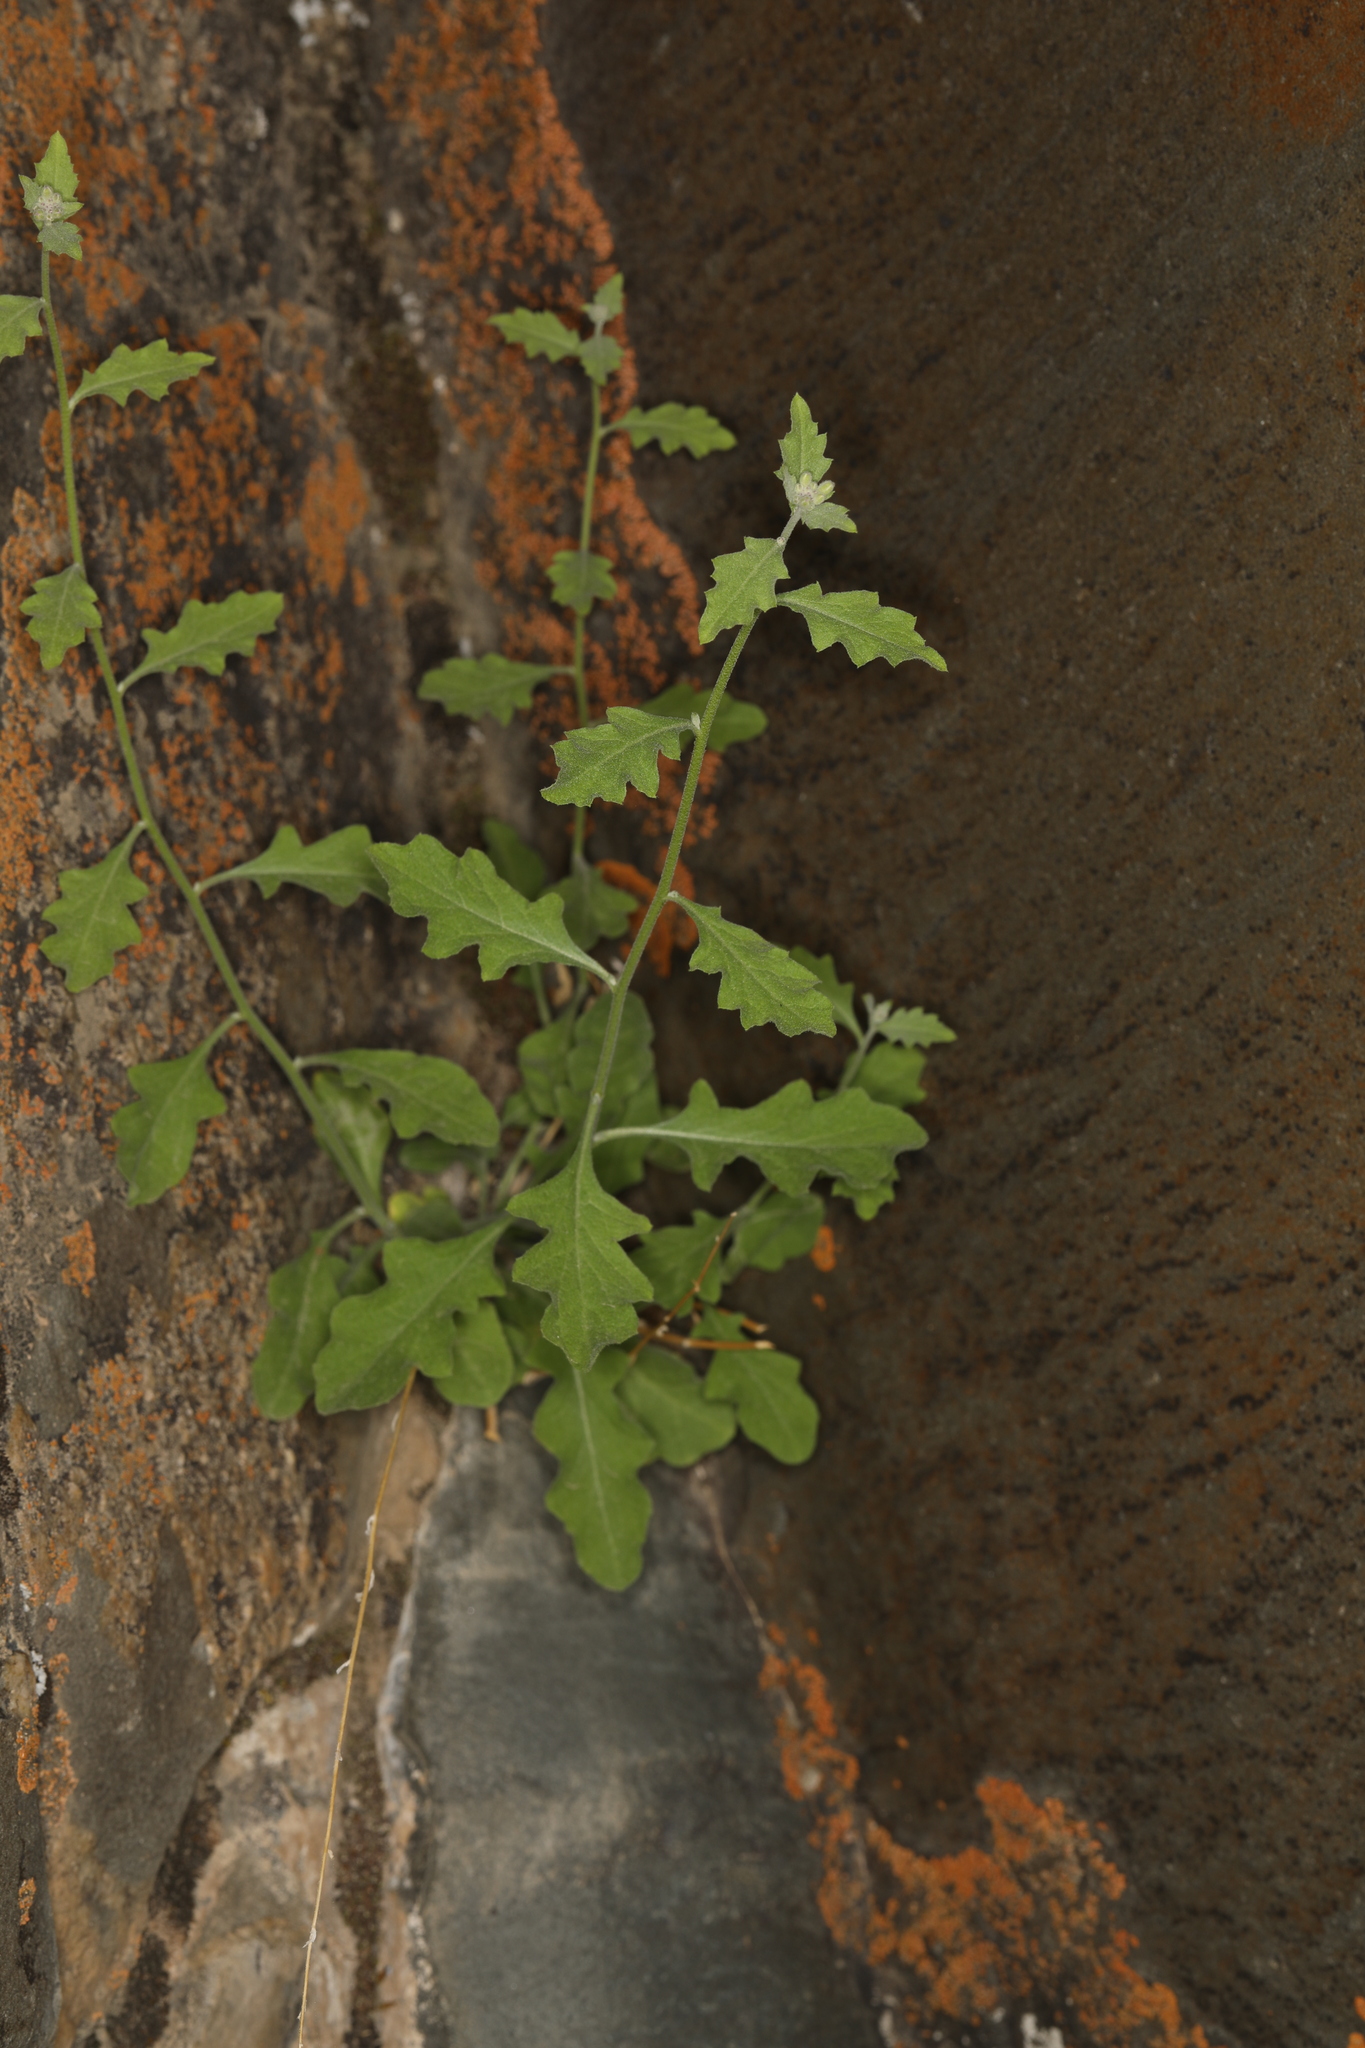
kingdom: Plantae
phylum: Tracheophyta
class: Magnoliopsida
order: Brassicales
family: Brassicaceae
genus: Halimolobos
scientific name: Halimolobos jaegeri
